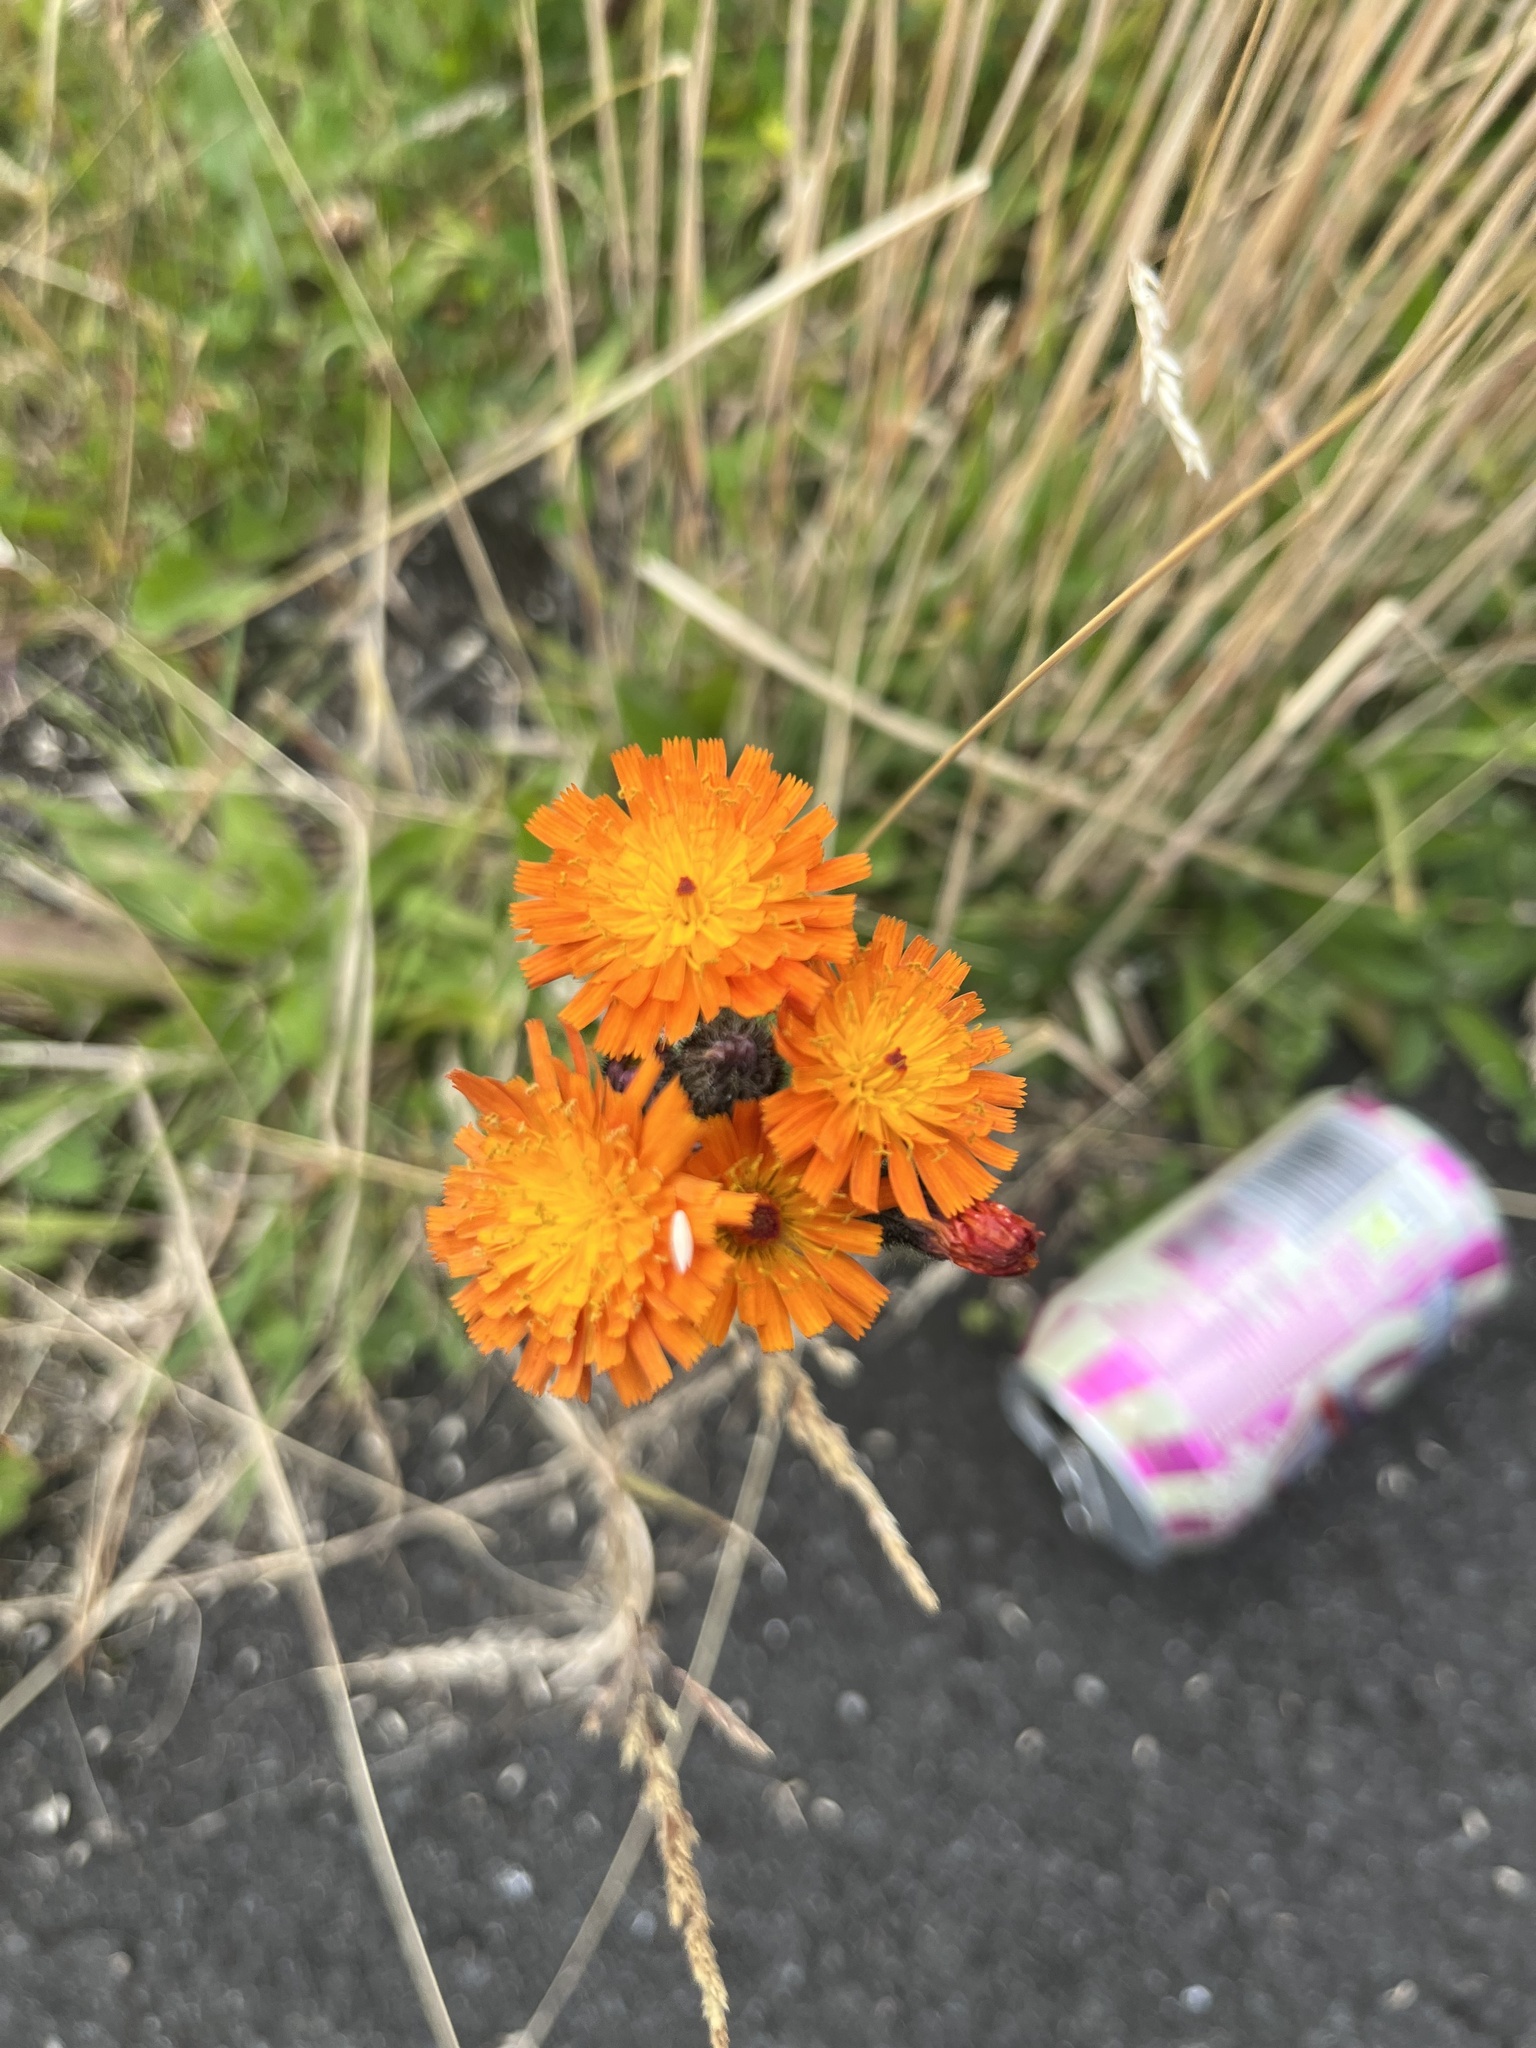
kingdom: Plantae
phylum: Tracheophyta
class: Magnoliopsida
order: Asterales
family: Asteraceae
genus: Pilosella
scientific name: Pilosella aurantiaca
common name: Fox-and-cubs
